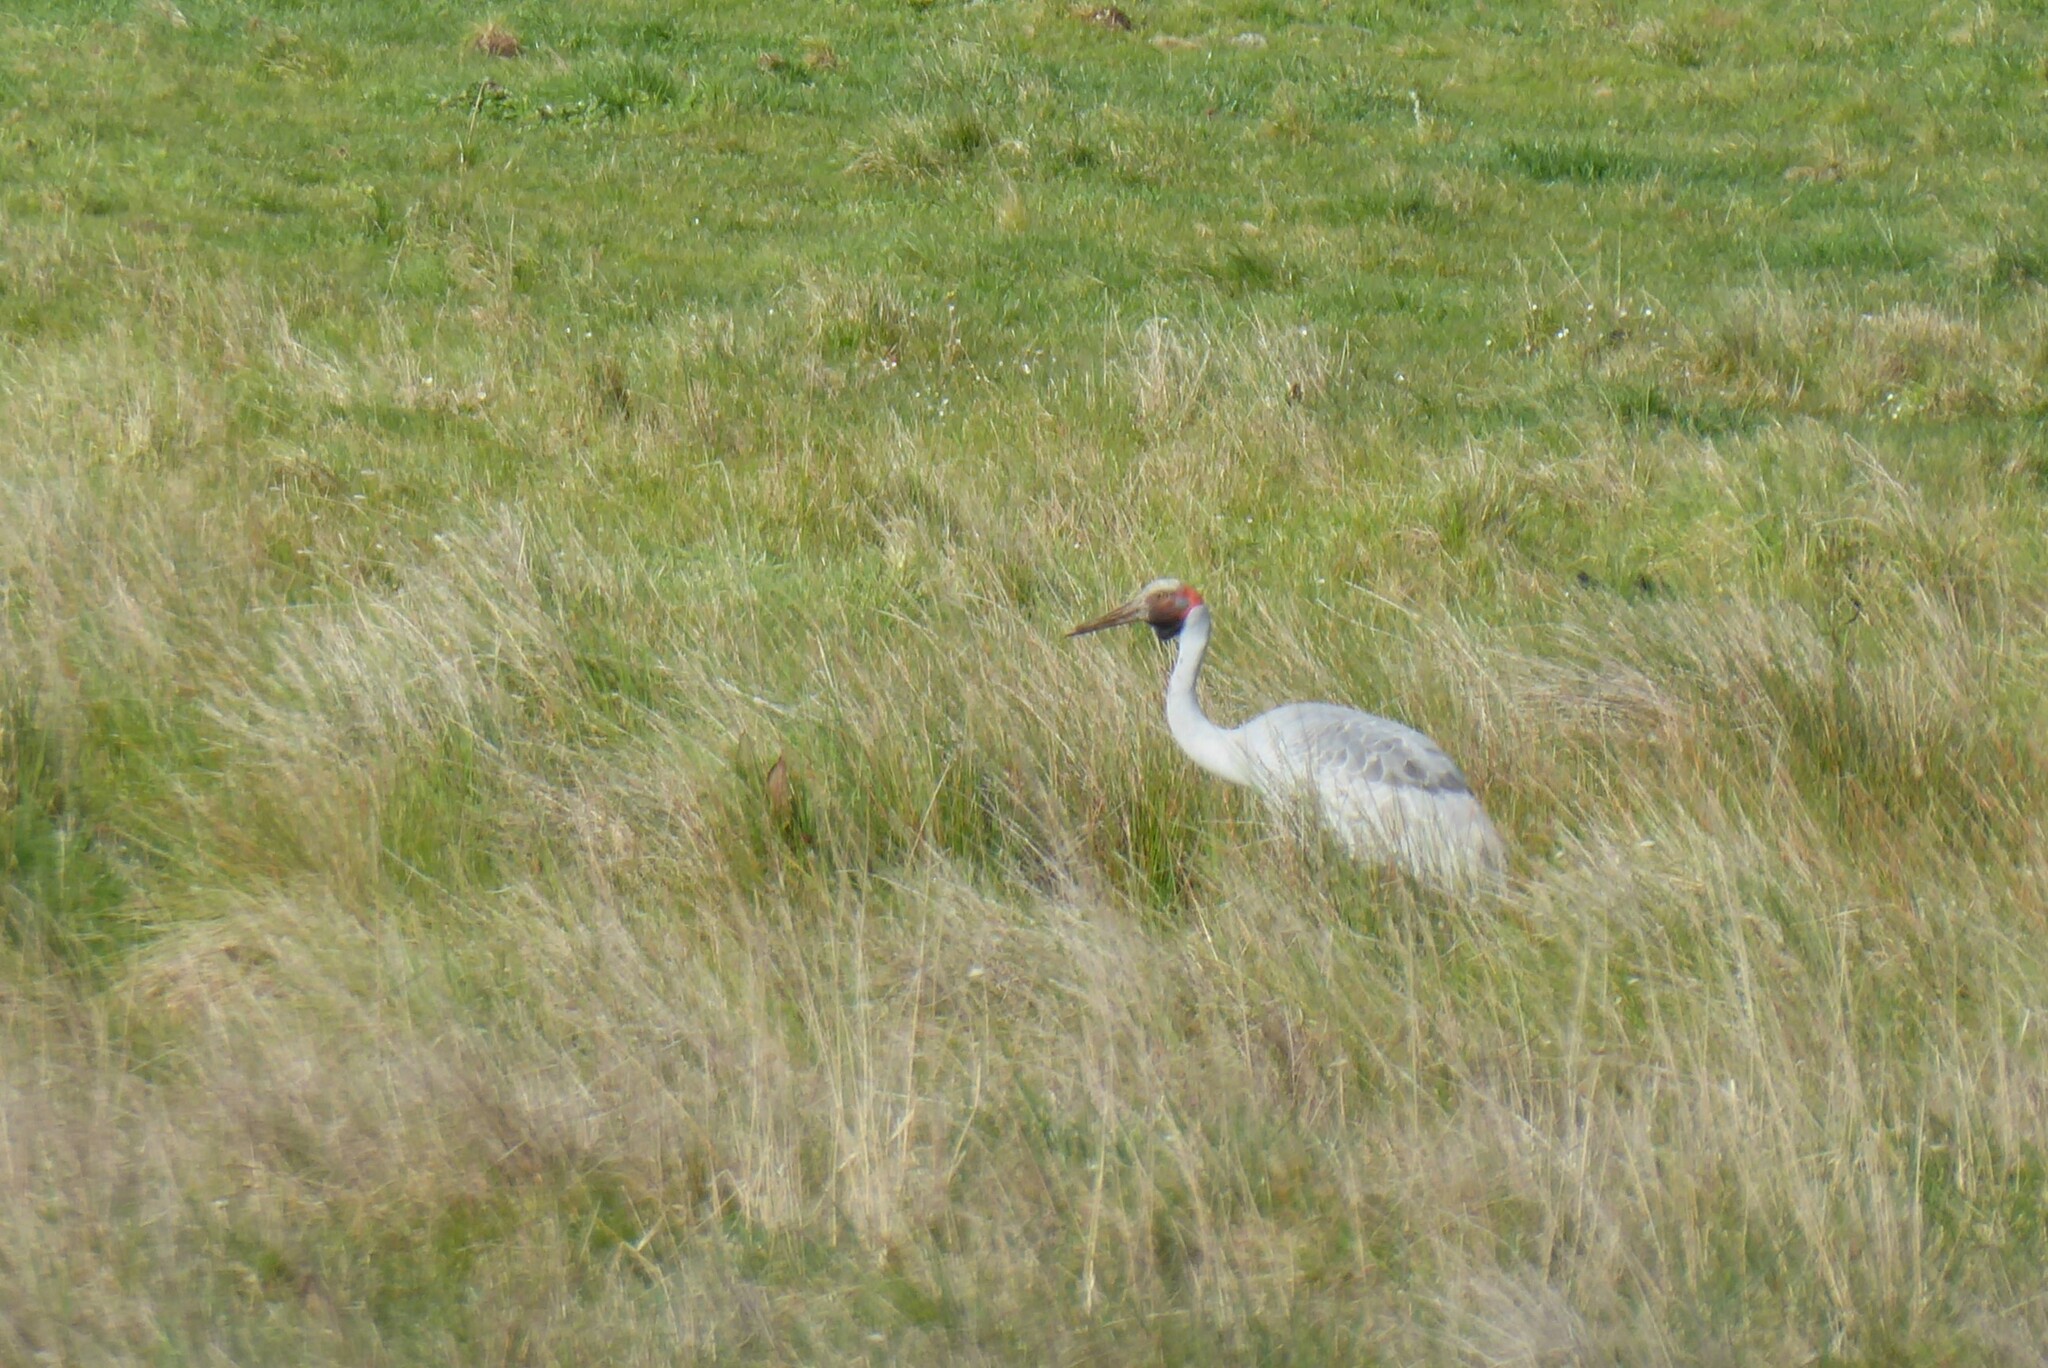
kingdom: Animalia
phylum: Chordata
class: Aves
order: Gruiformes
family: Gruidae
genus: Grus
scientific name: Grus rubicunda
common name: Brolga
